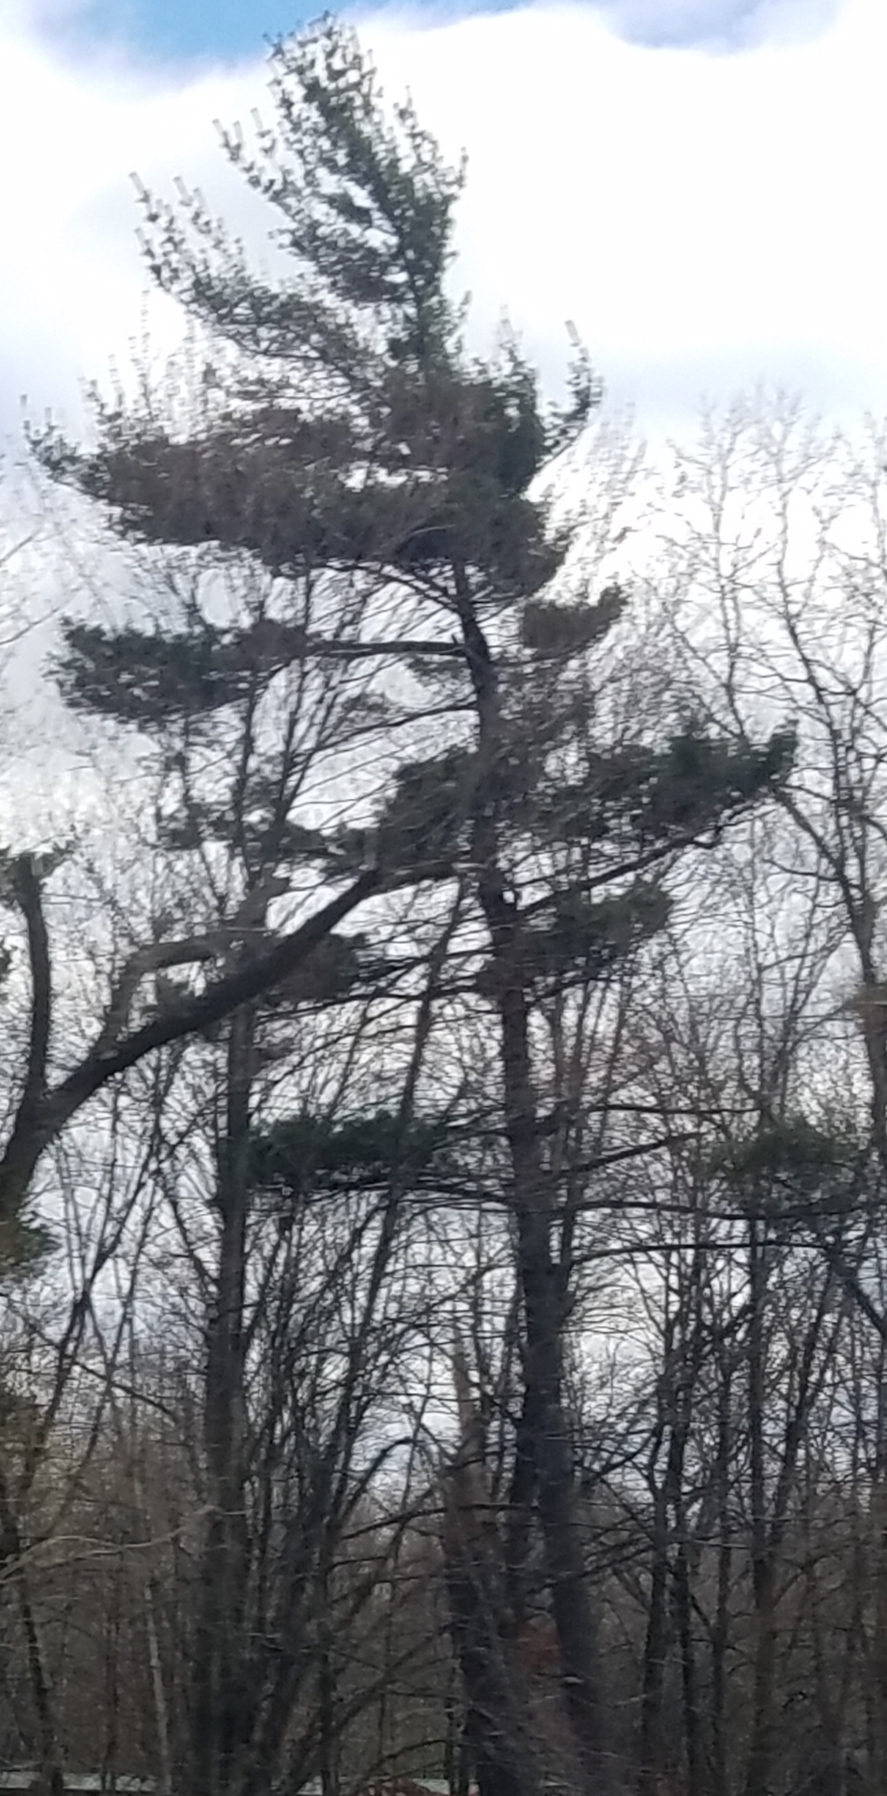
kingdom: Plantae
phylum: Tracheophyta
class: Pinopsida
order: Pinales
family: Pinaceae
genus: Pinus
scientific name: Pinus strobus
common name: Weymouth pine
